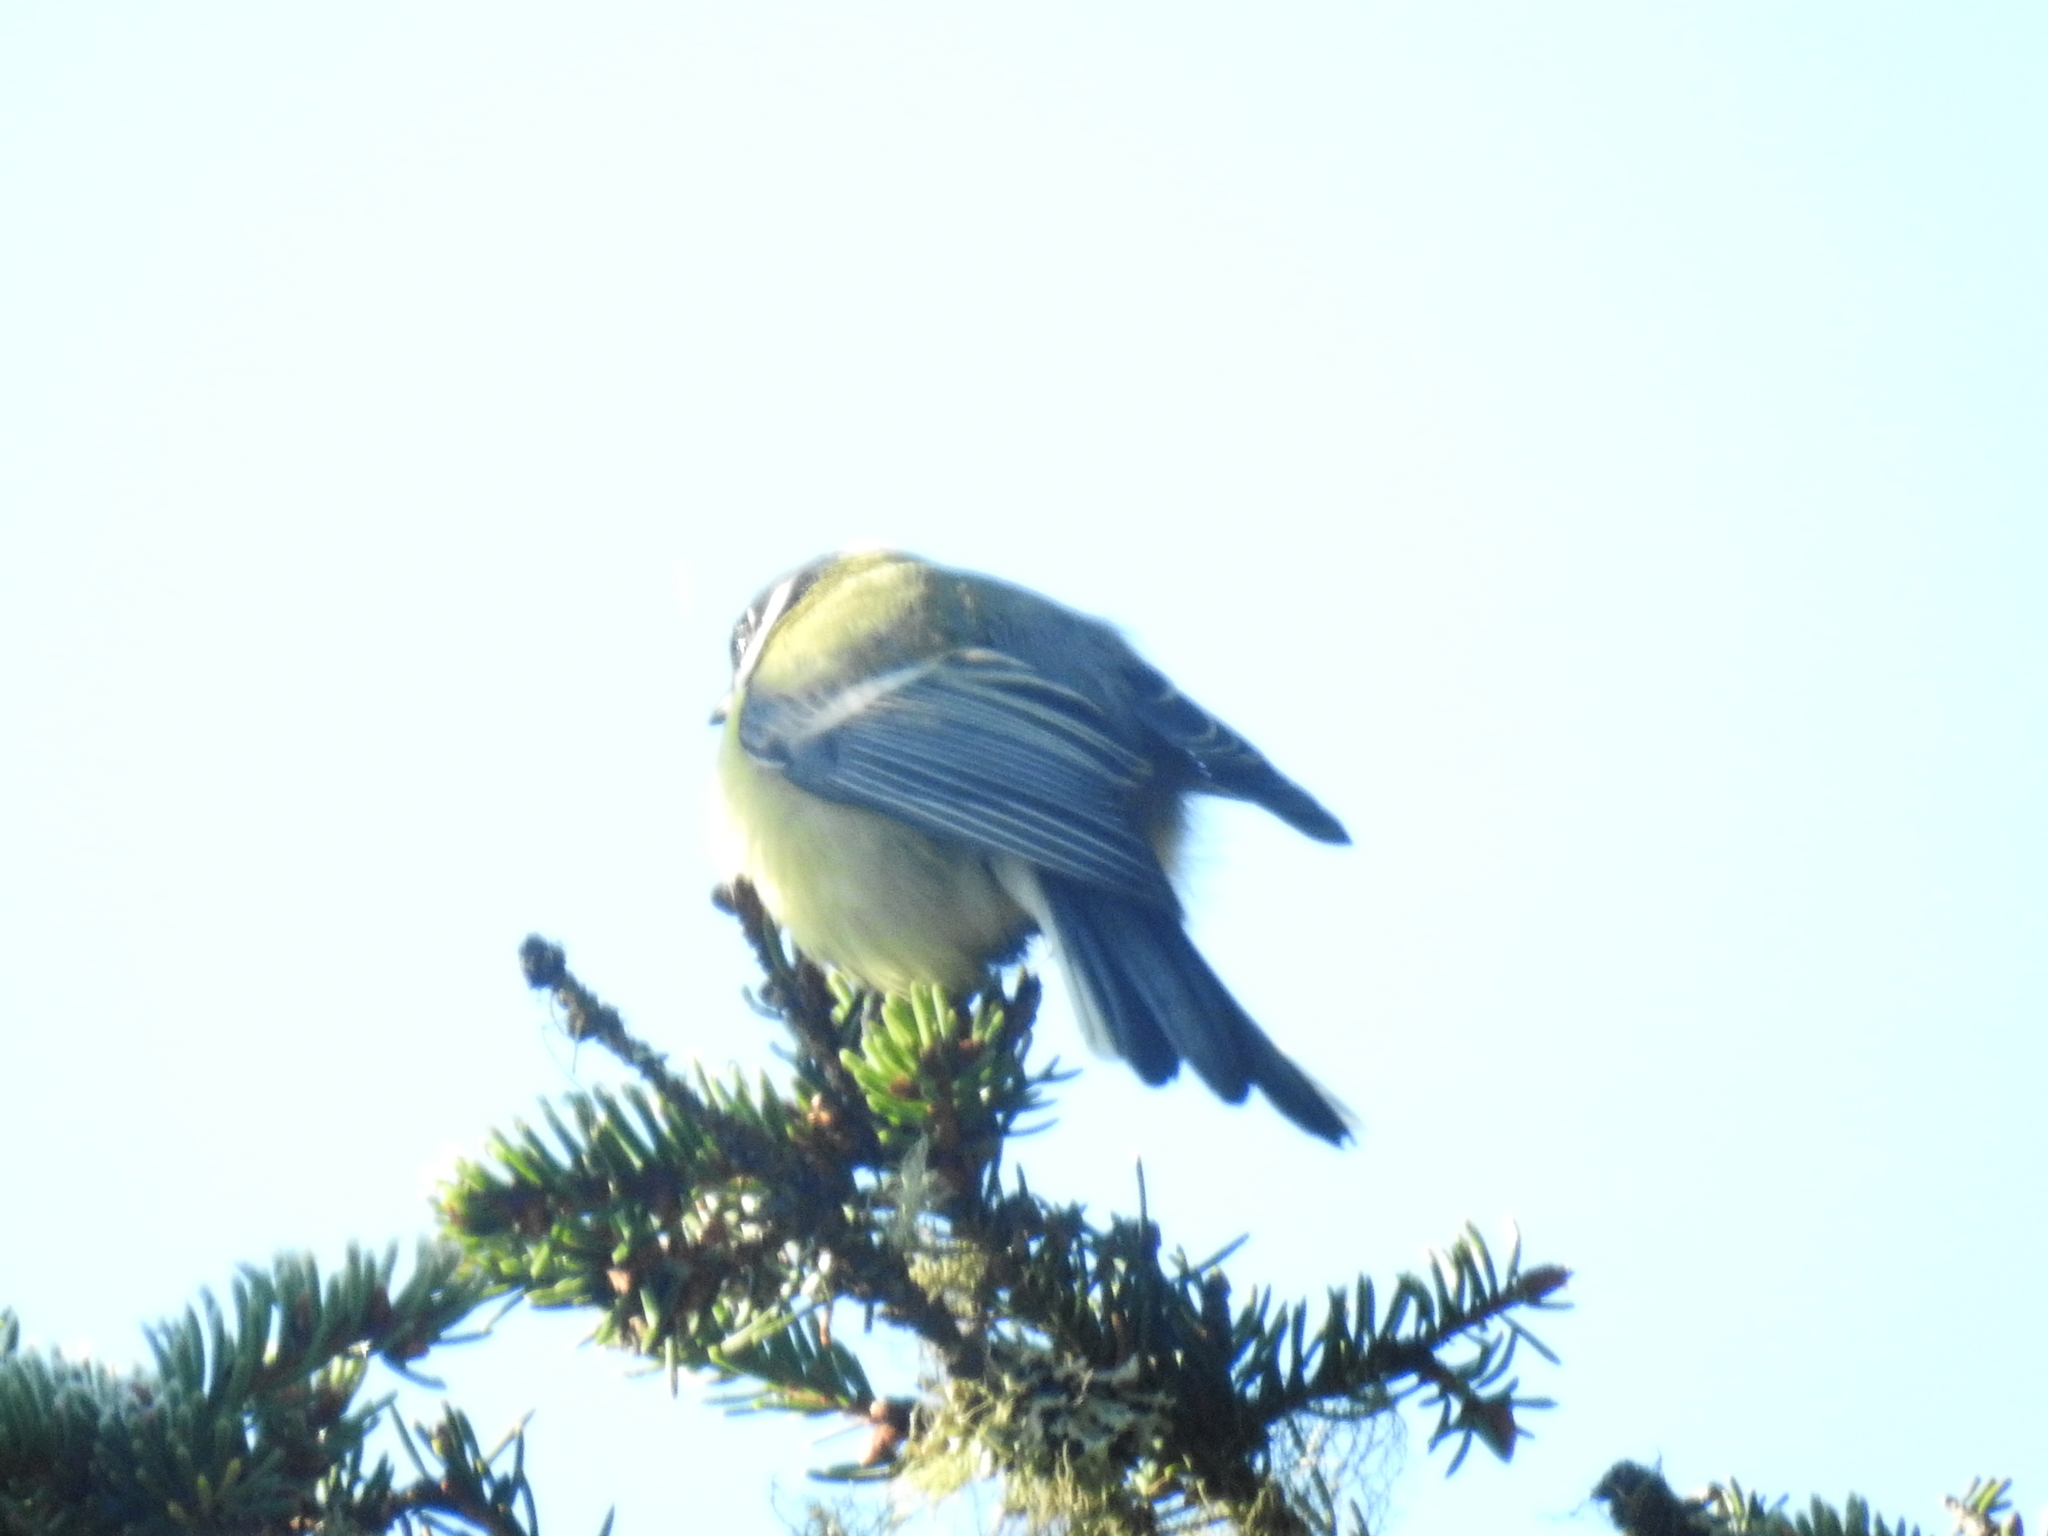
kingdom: Animalia
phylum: Chordata
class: Aves
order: Passeriformes
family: Paridae
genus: Parus
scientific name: Parus major
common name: Great tit
